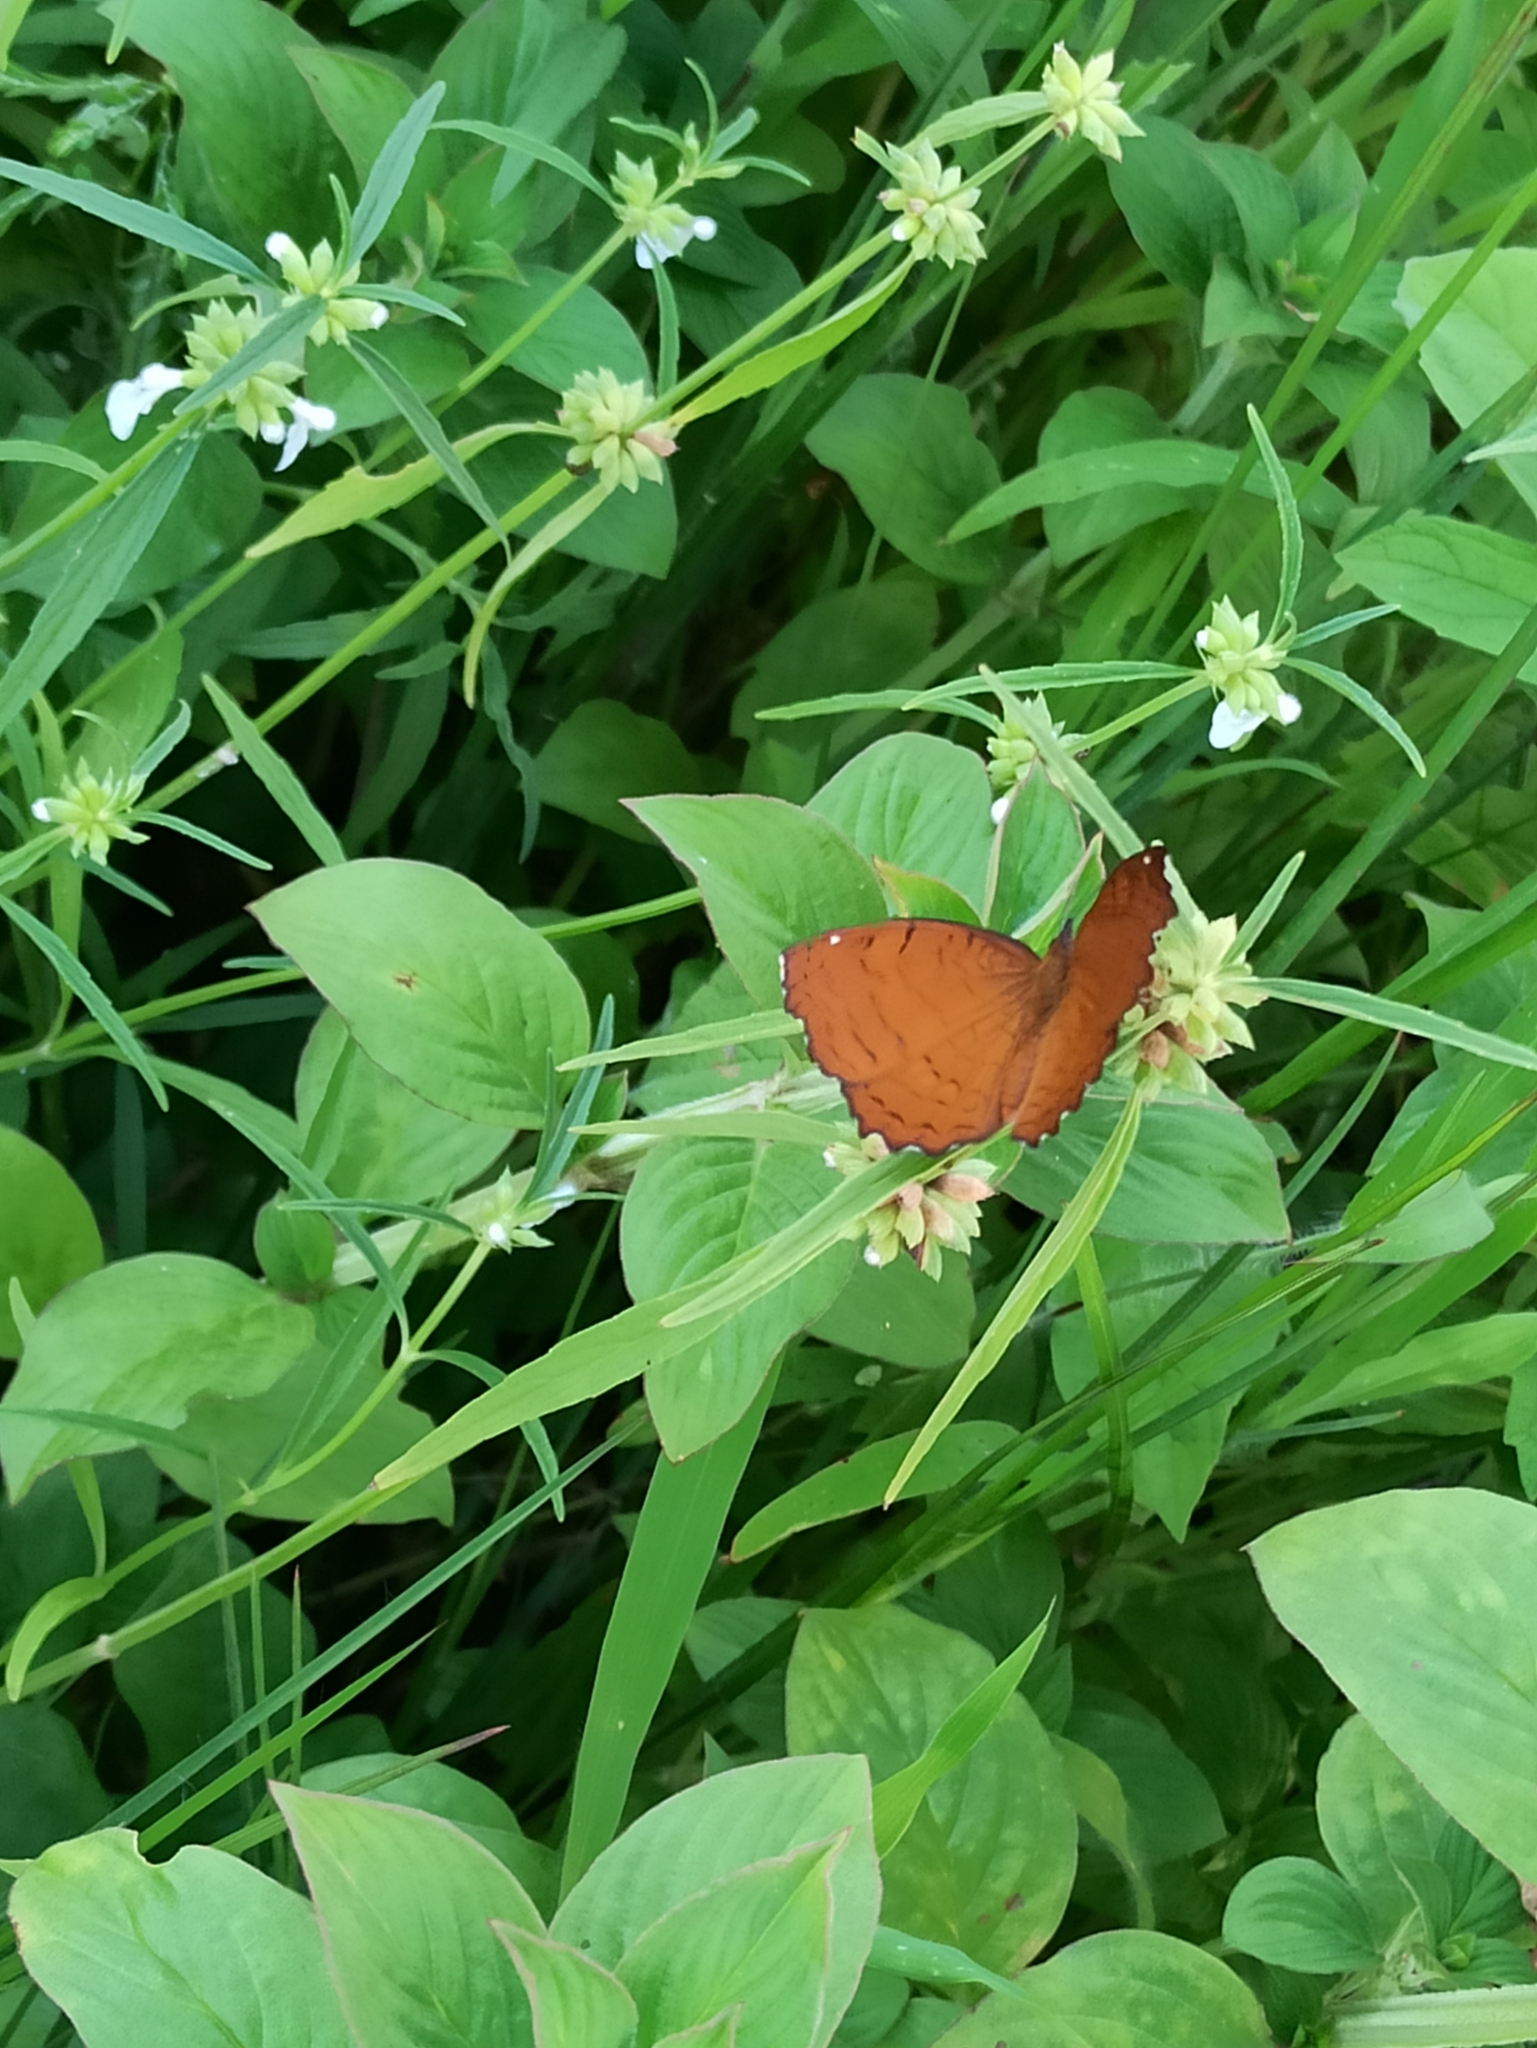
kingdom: Animalia
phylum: Arthropoda
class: Insecta
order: Lepidoptera
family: Nymphalidae
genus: Ariadne
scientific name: Ariadne ariadne
